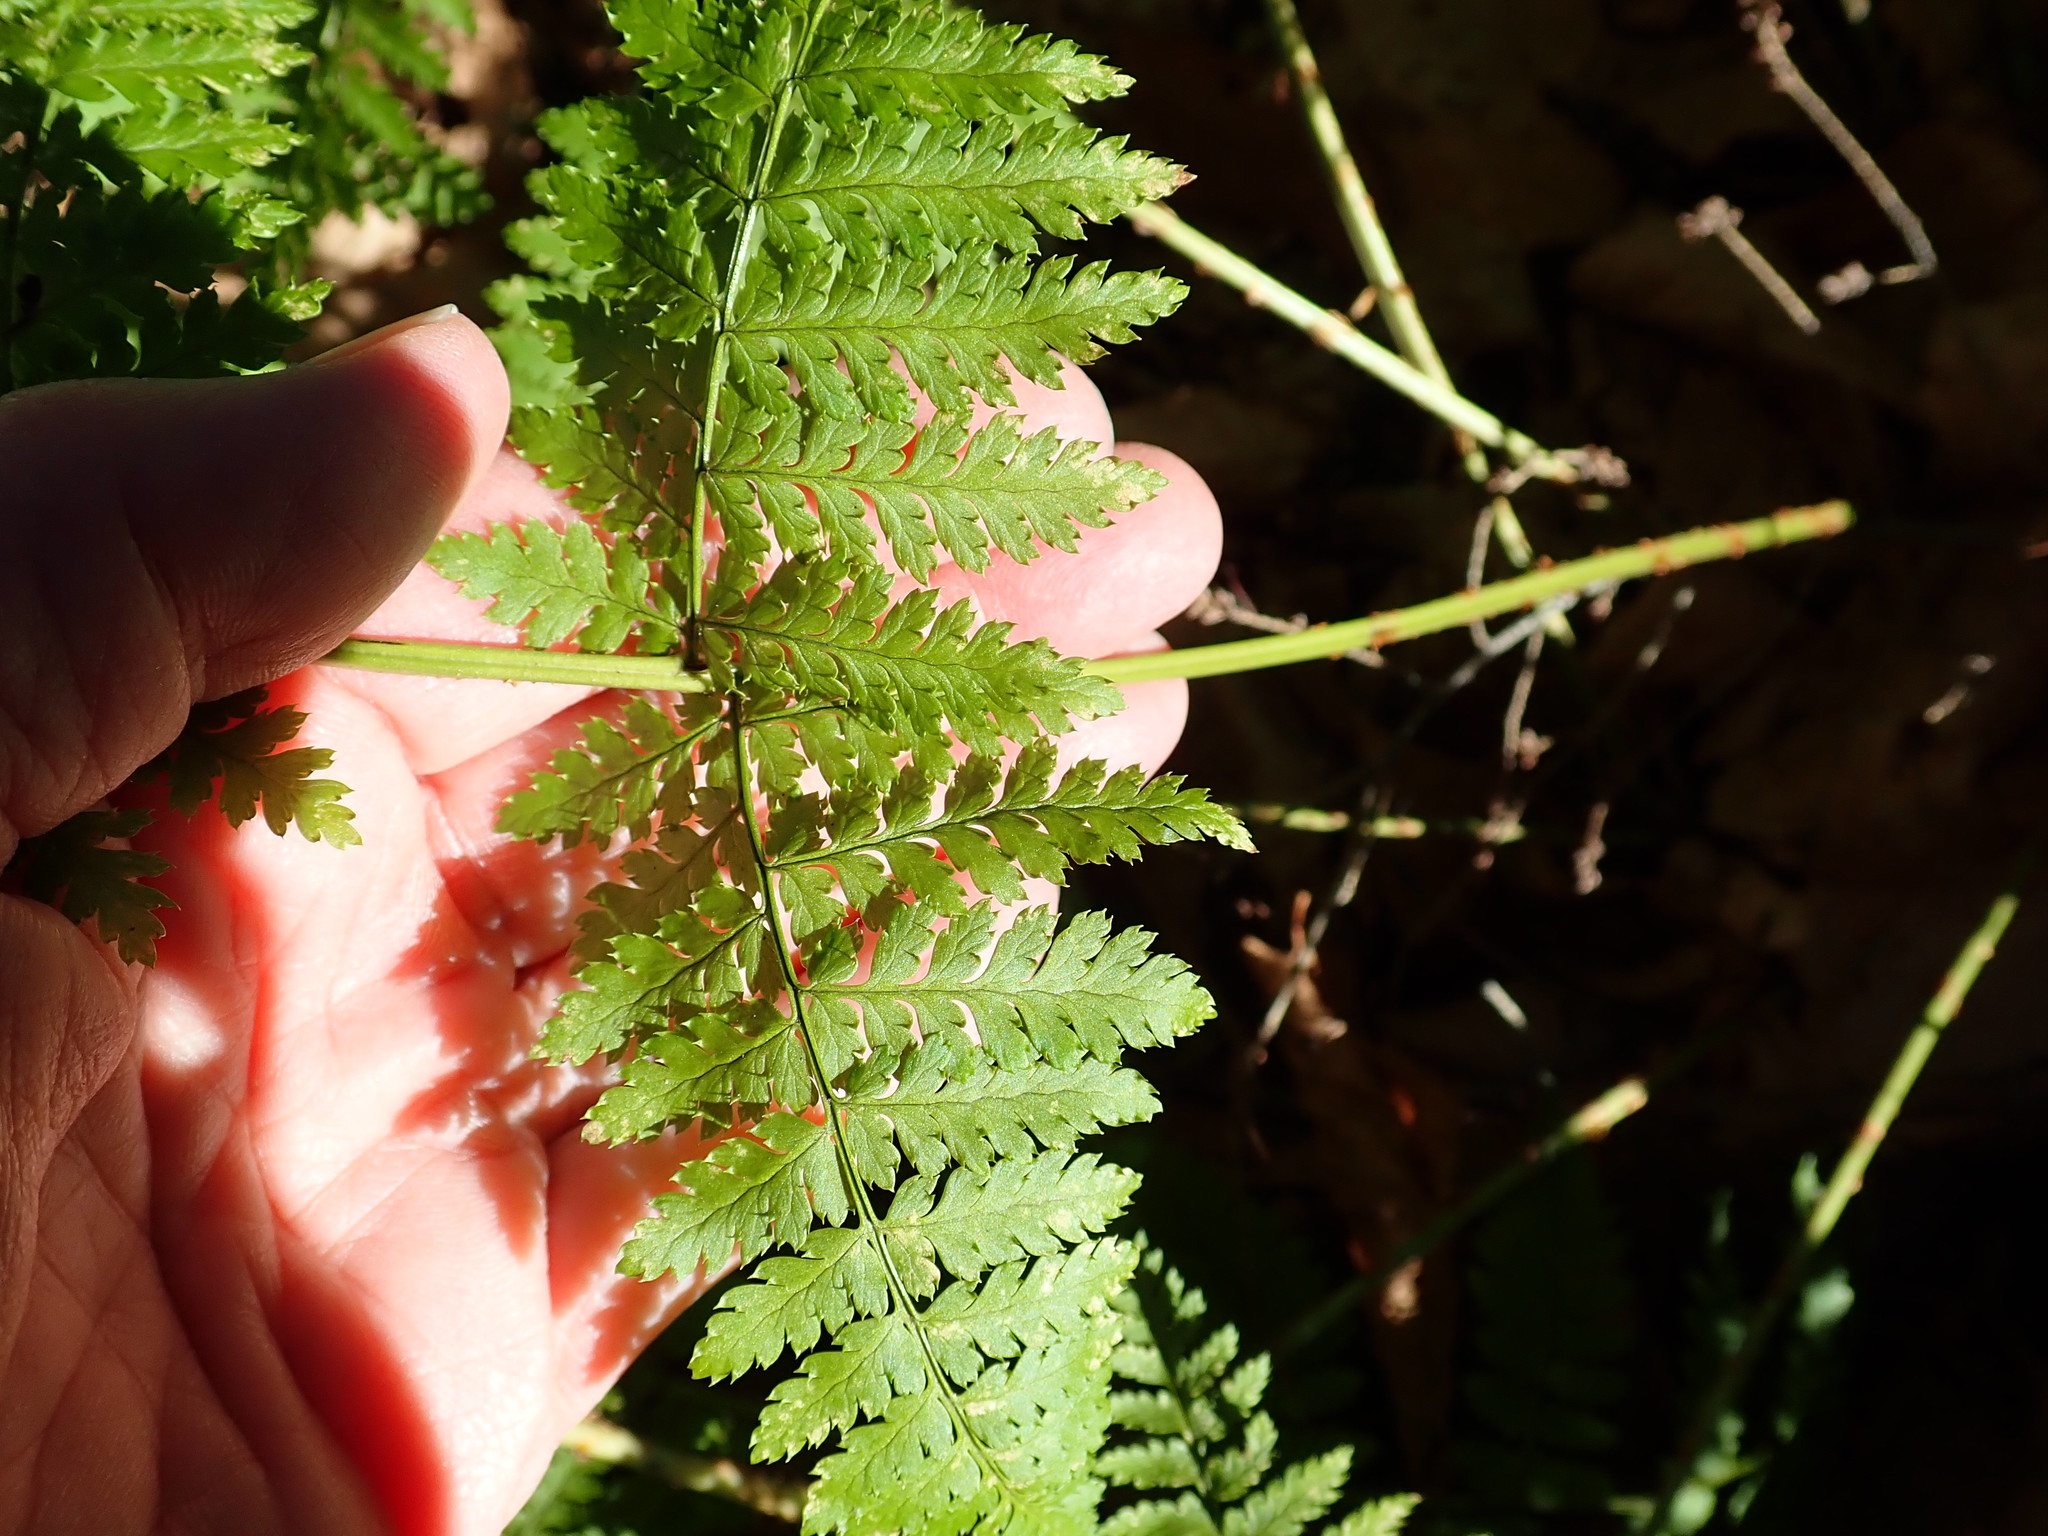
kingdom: Plantae
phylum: Tracheophyta
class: Polypodiopsida
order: Polypodiales
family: Dryopteridaceae
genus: Dryopteris
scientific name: Dryopteris intermedia
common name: Evergreen wood fern
